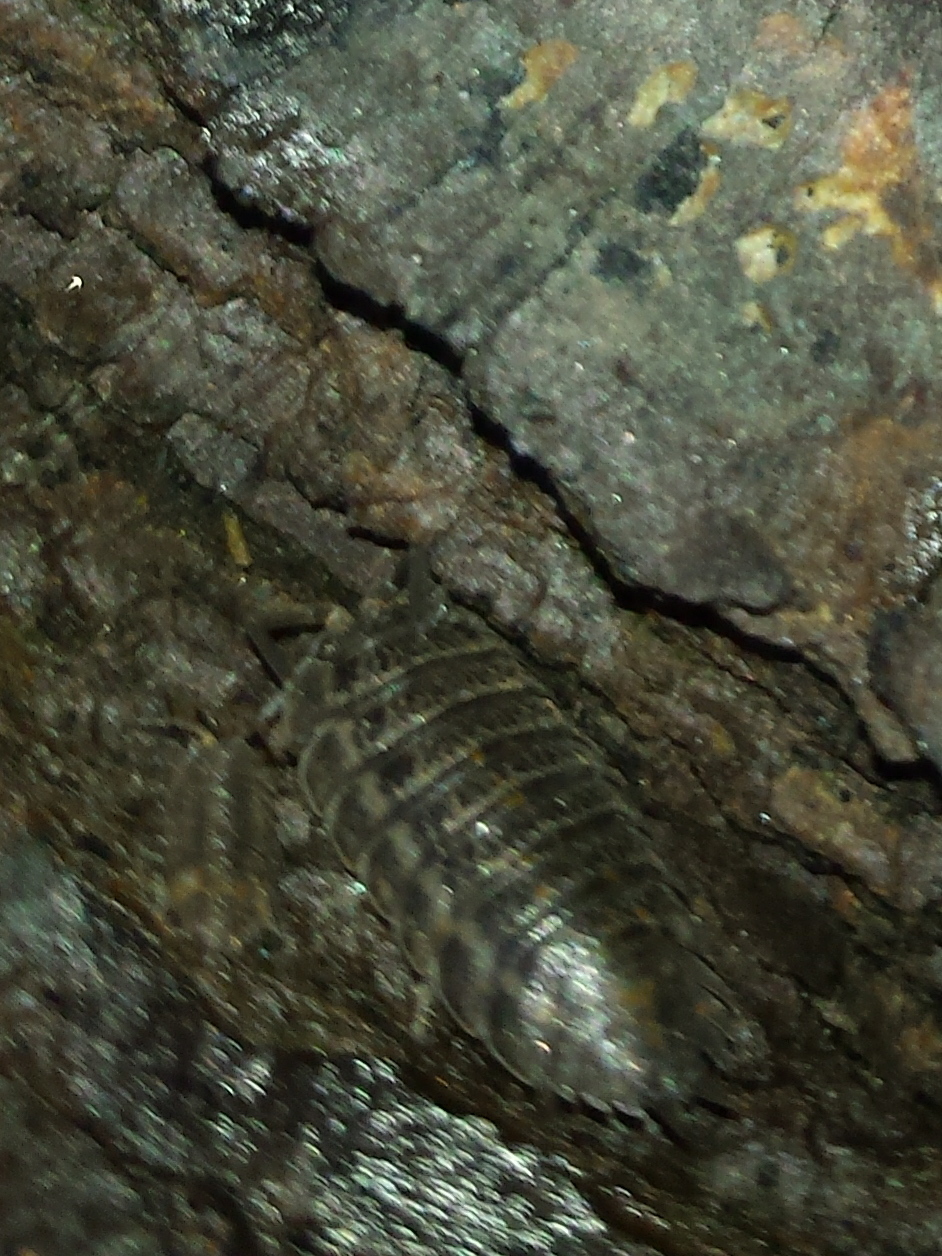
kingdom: Animalia
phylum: Arthropoda
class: Malacostraca
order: Isopoda
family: Trachelipodidae
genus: Trachelipus
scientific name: Trachelipus rathkii
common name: Isopod
